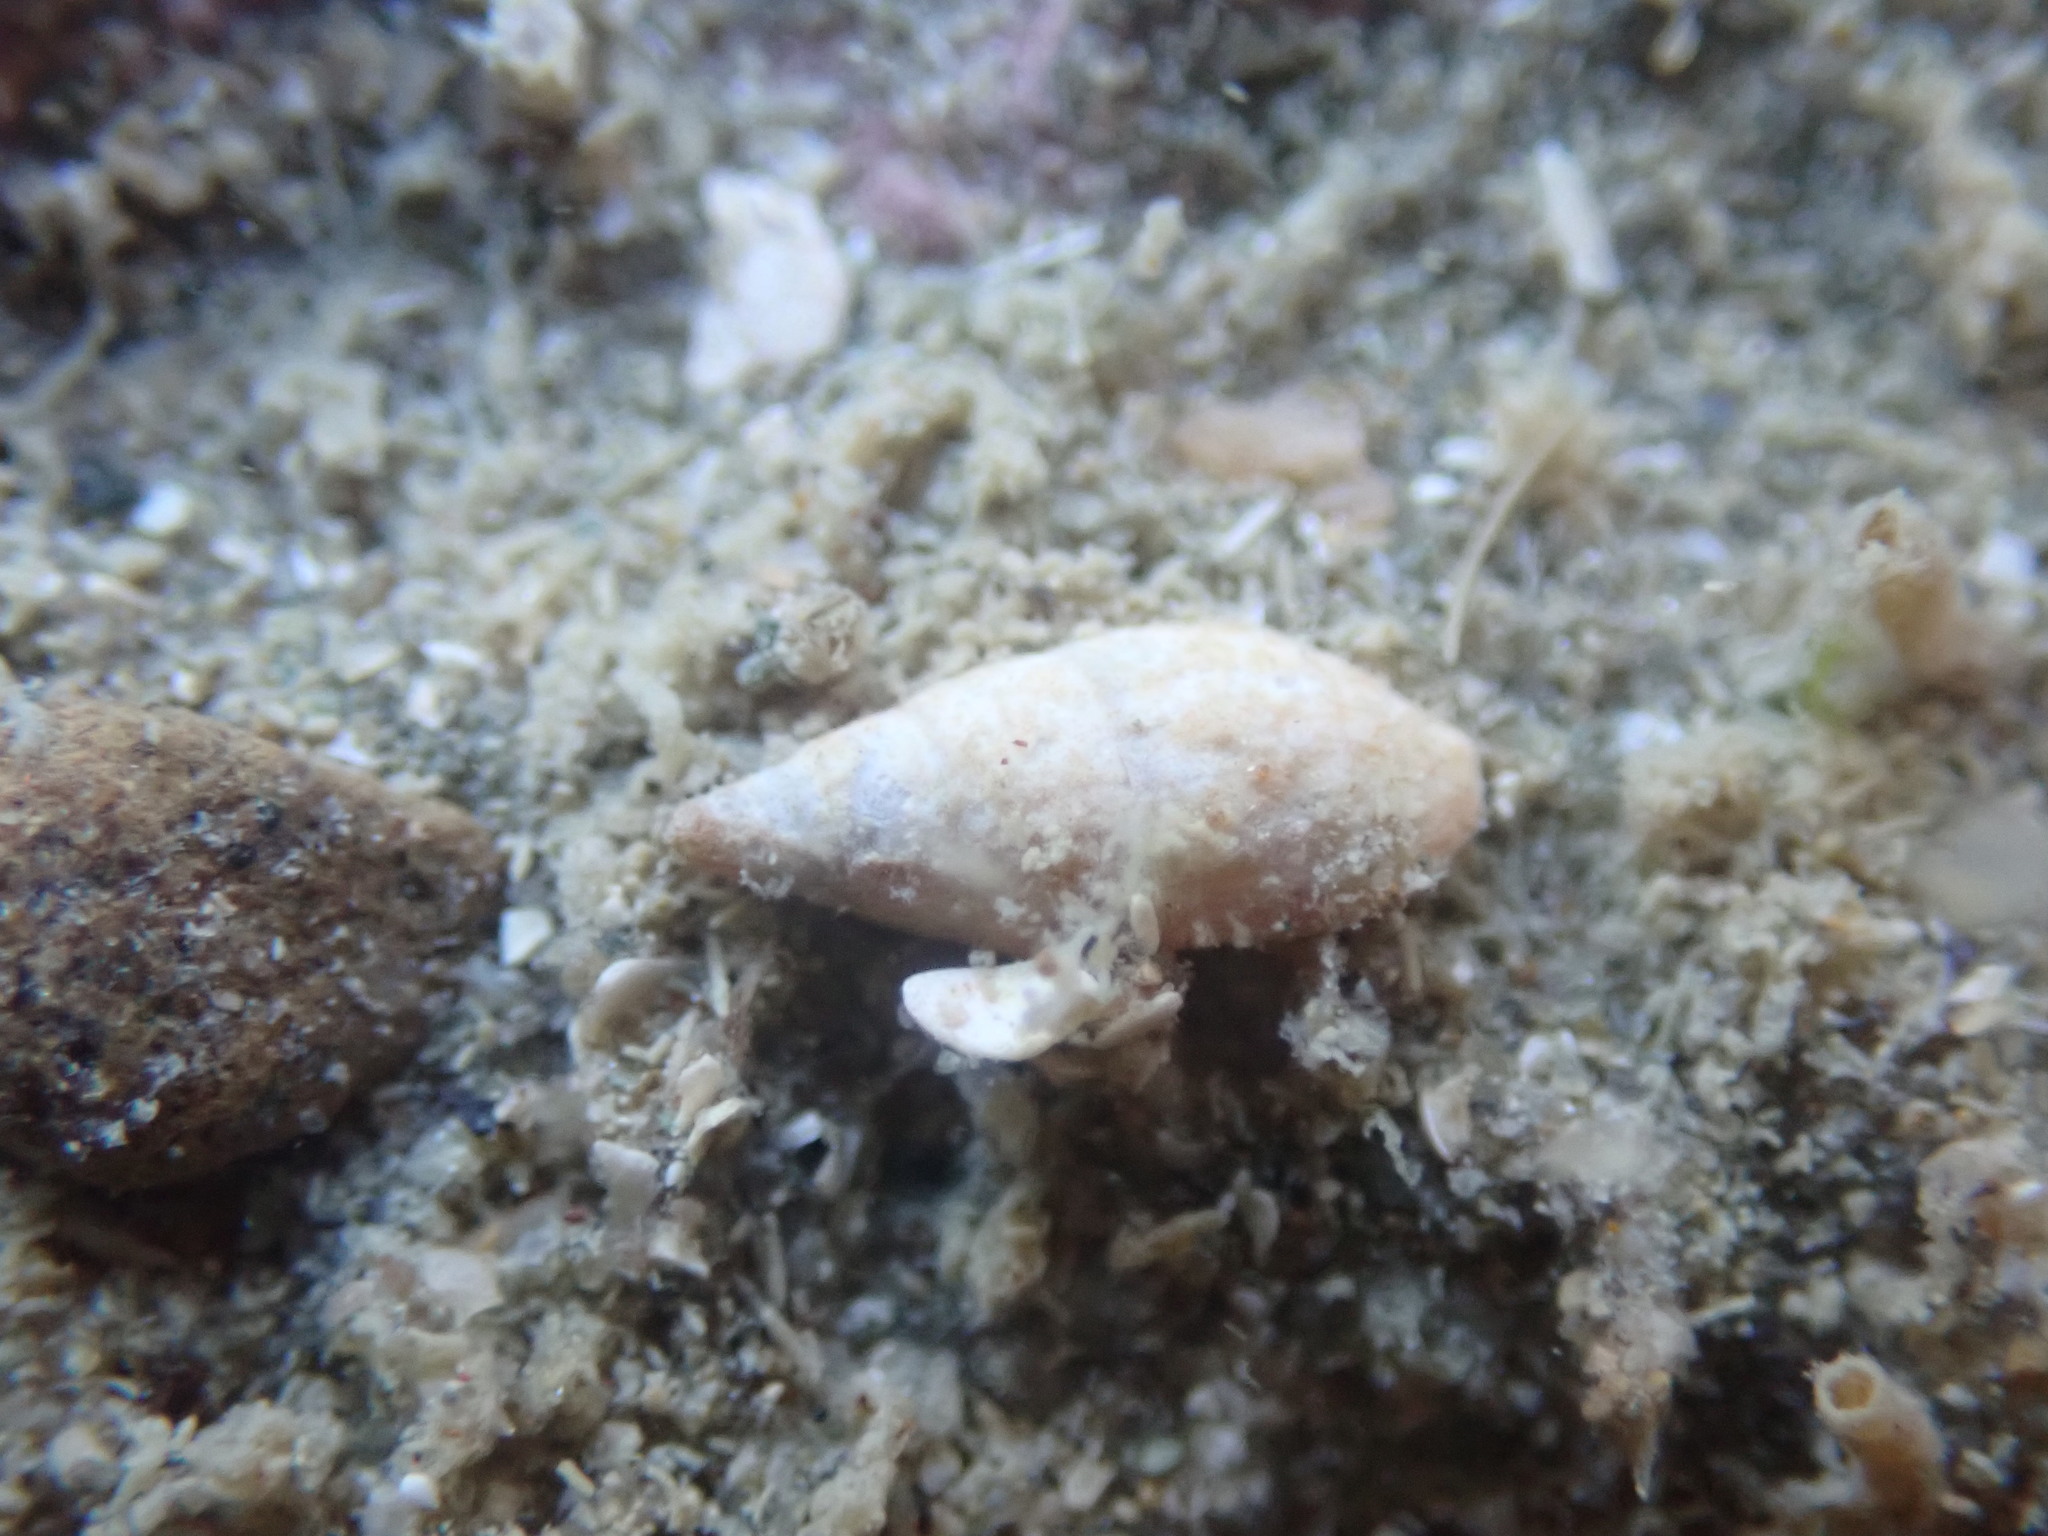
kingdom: Animalia
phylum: Mollusca
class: Gastropoda
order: Neogastropoda
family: Columbellidae
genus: Zemitrella
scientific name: Zemitrella
